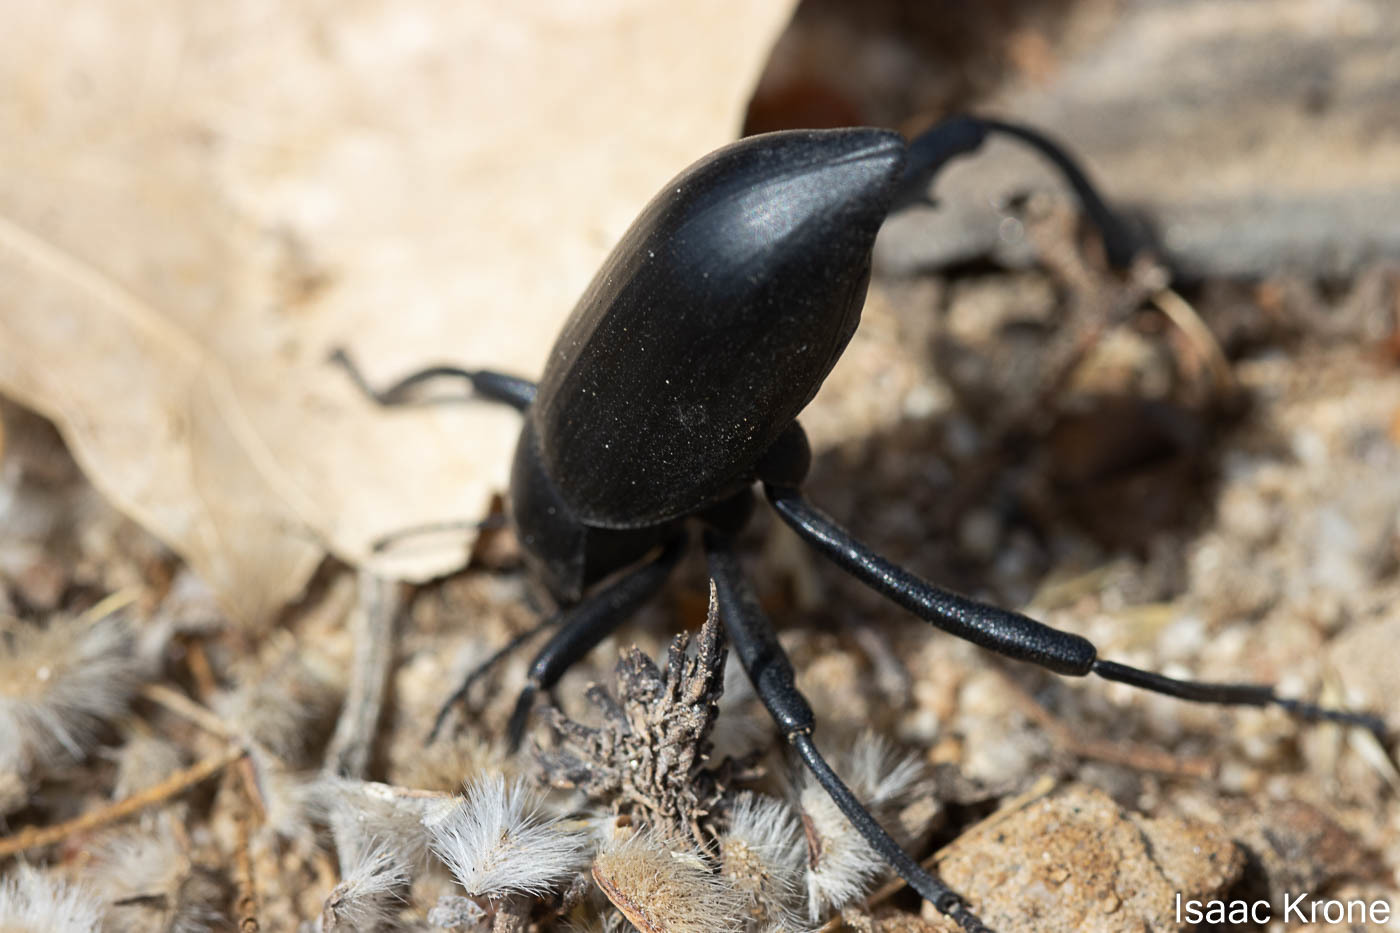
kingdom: Animalia
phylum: Arthropoda
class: Insecta
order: Coleoptera
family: Tenebrionidae
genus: Eleodes
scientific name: Eleodes armata
